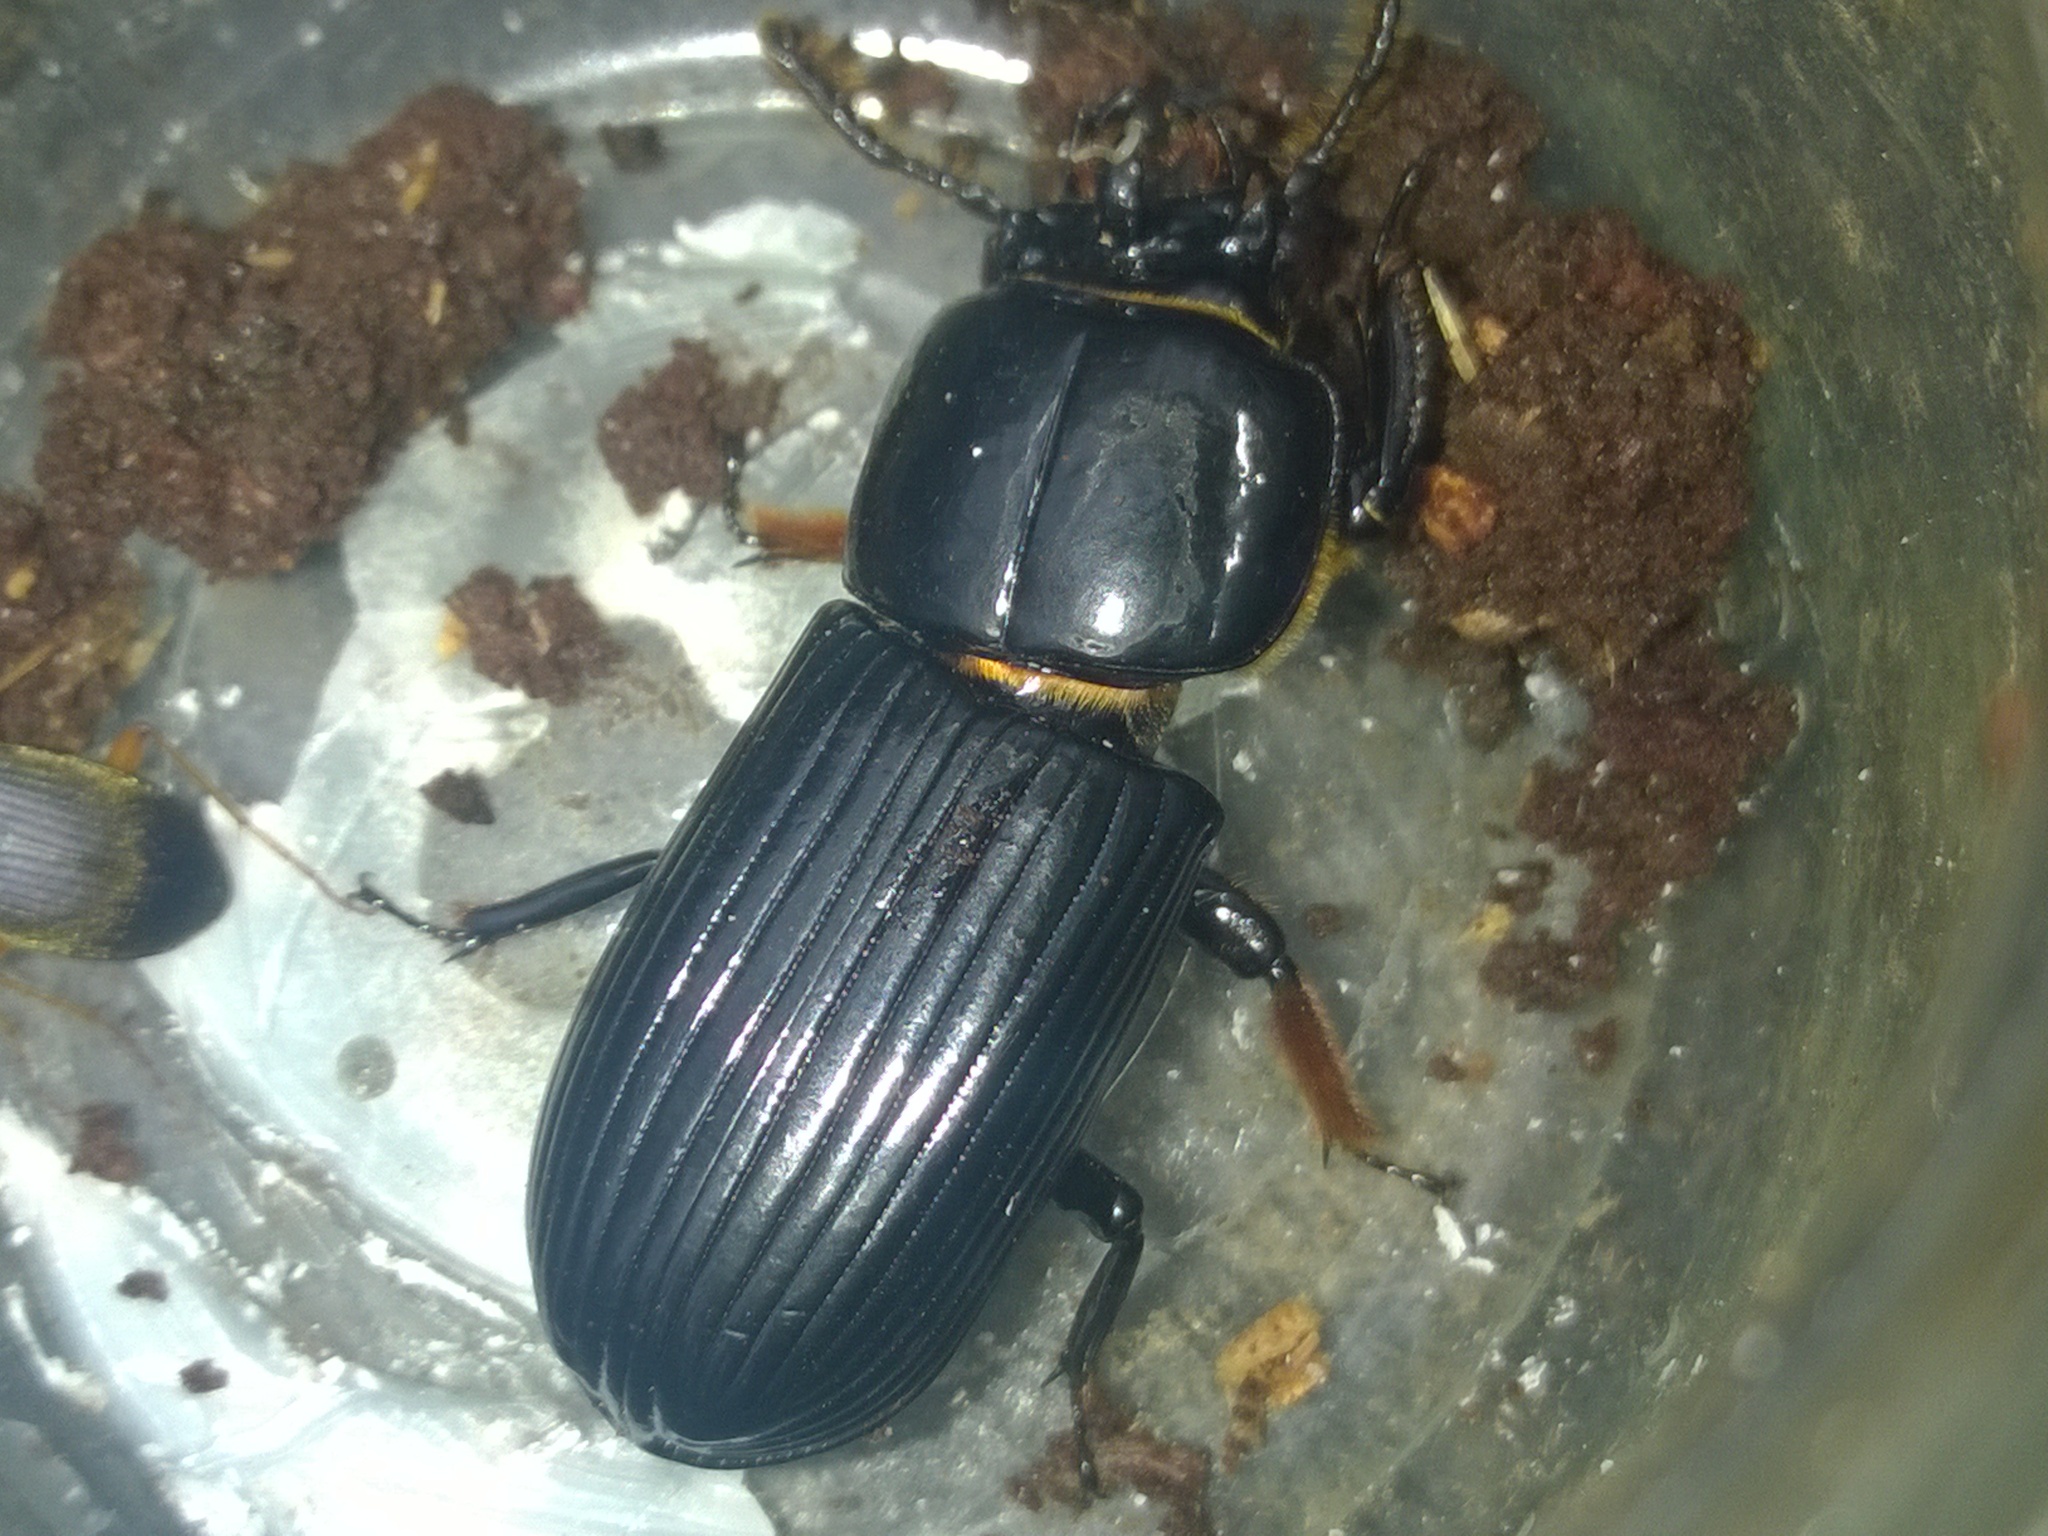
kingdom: Animalia
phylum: Arthropoda
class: Insecta
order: Coleoptera
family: Passalidae
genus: Odontotaenius
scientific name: Odontotaenius disjunctus
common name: Patent leather beetle
